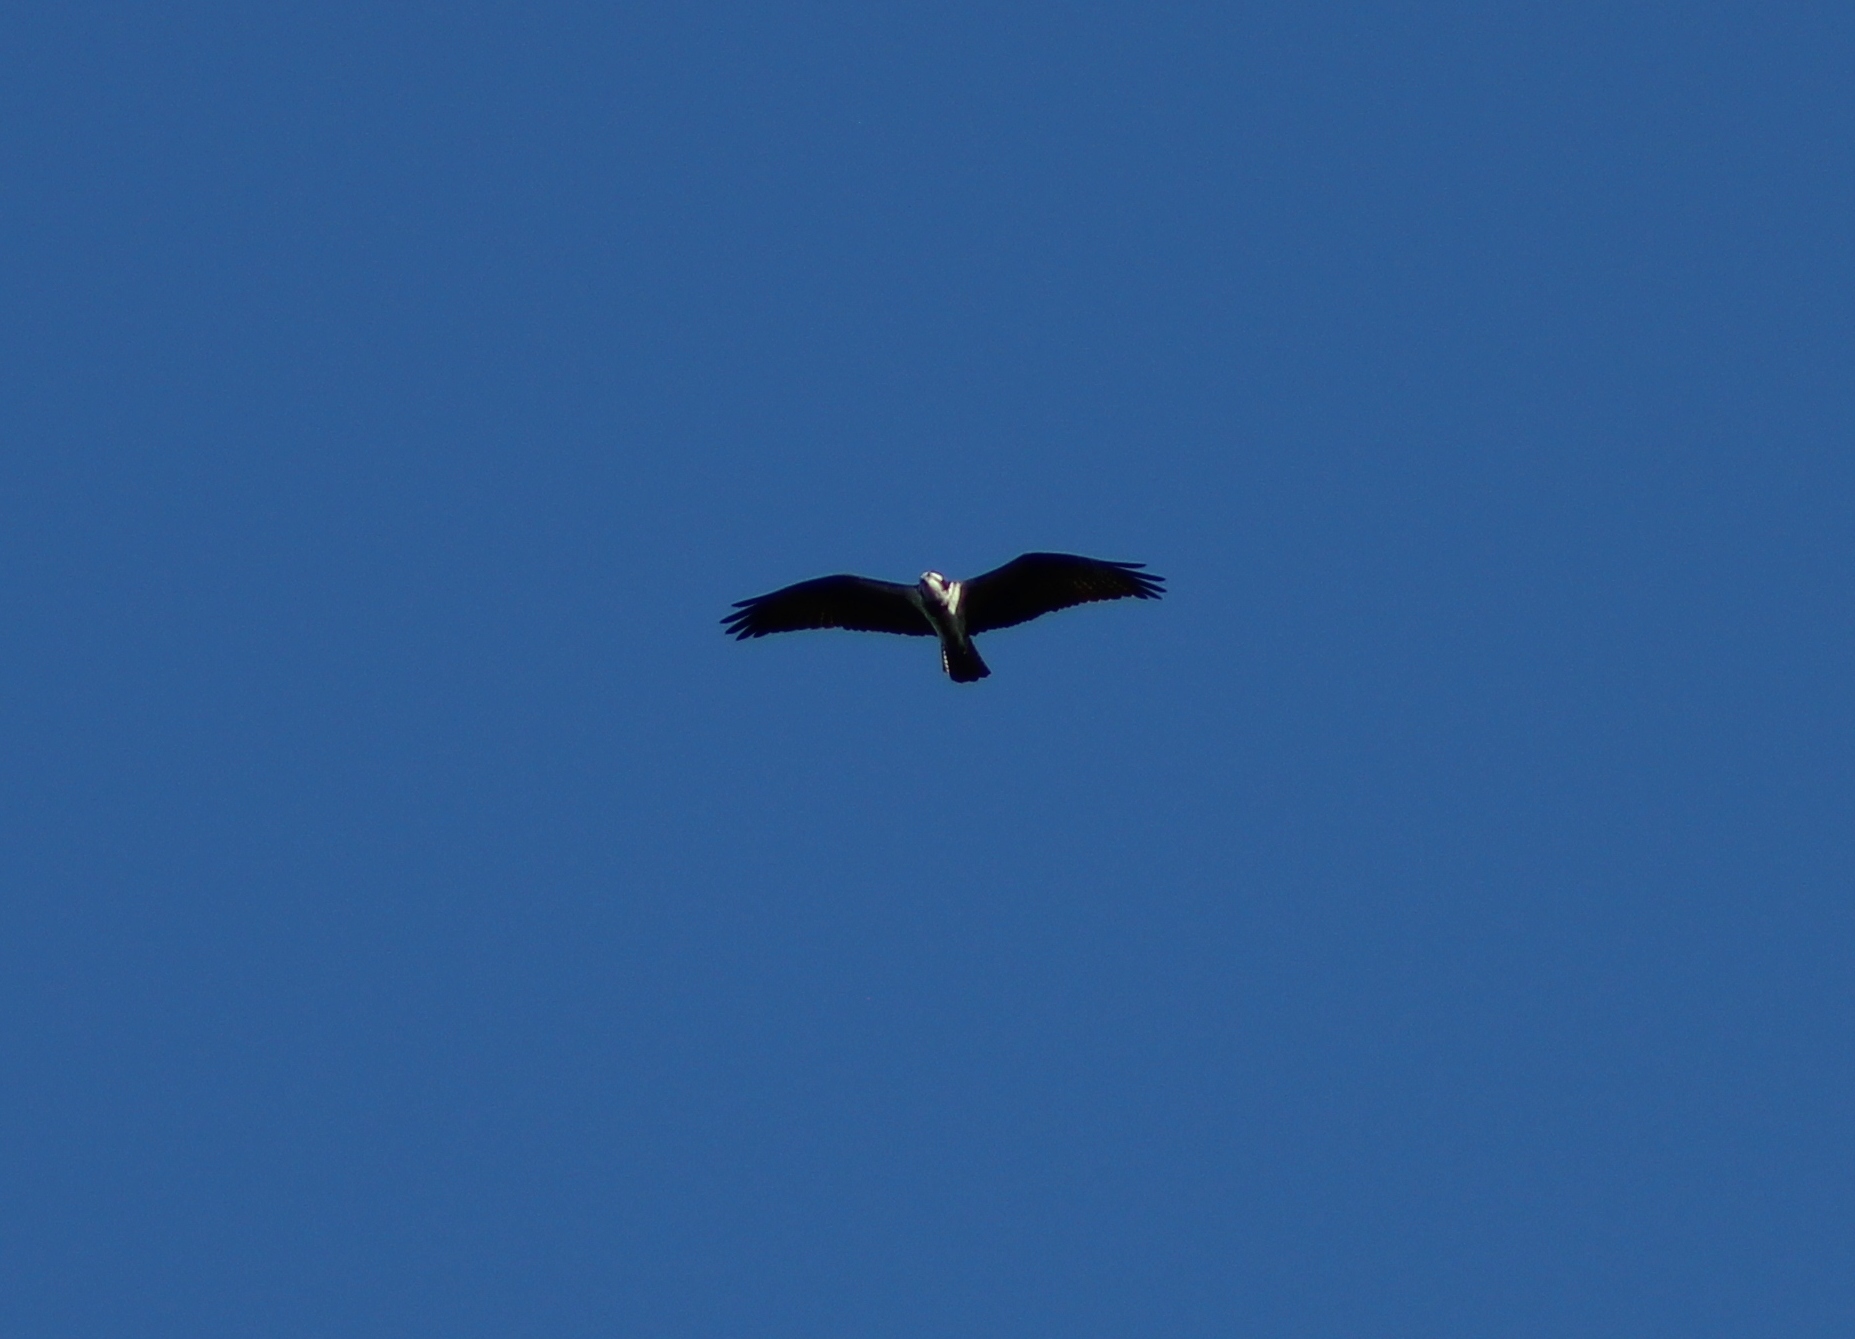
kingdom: Animalia
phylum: Chordata
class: Aves
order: Accipitriformes
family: Pandionidae
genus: Pandion
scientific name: Pandion haliaetus
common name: Osprey
